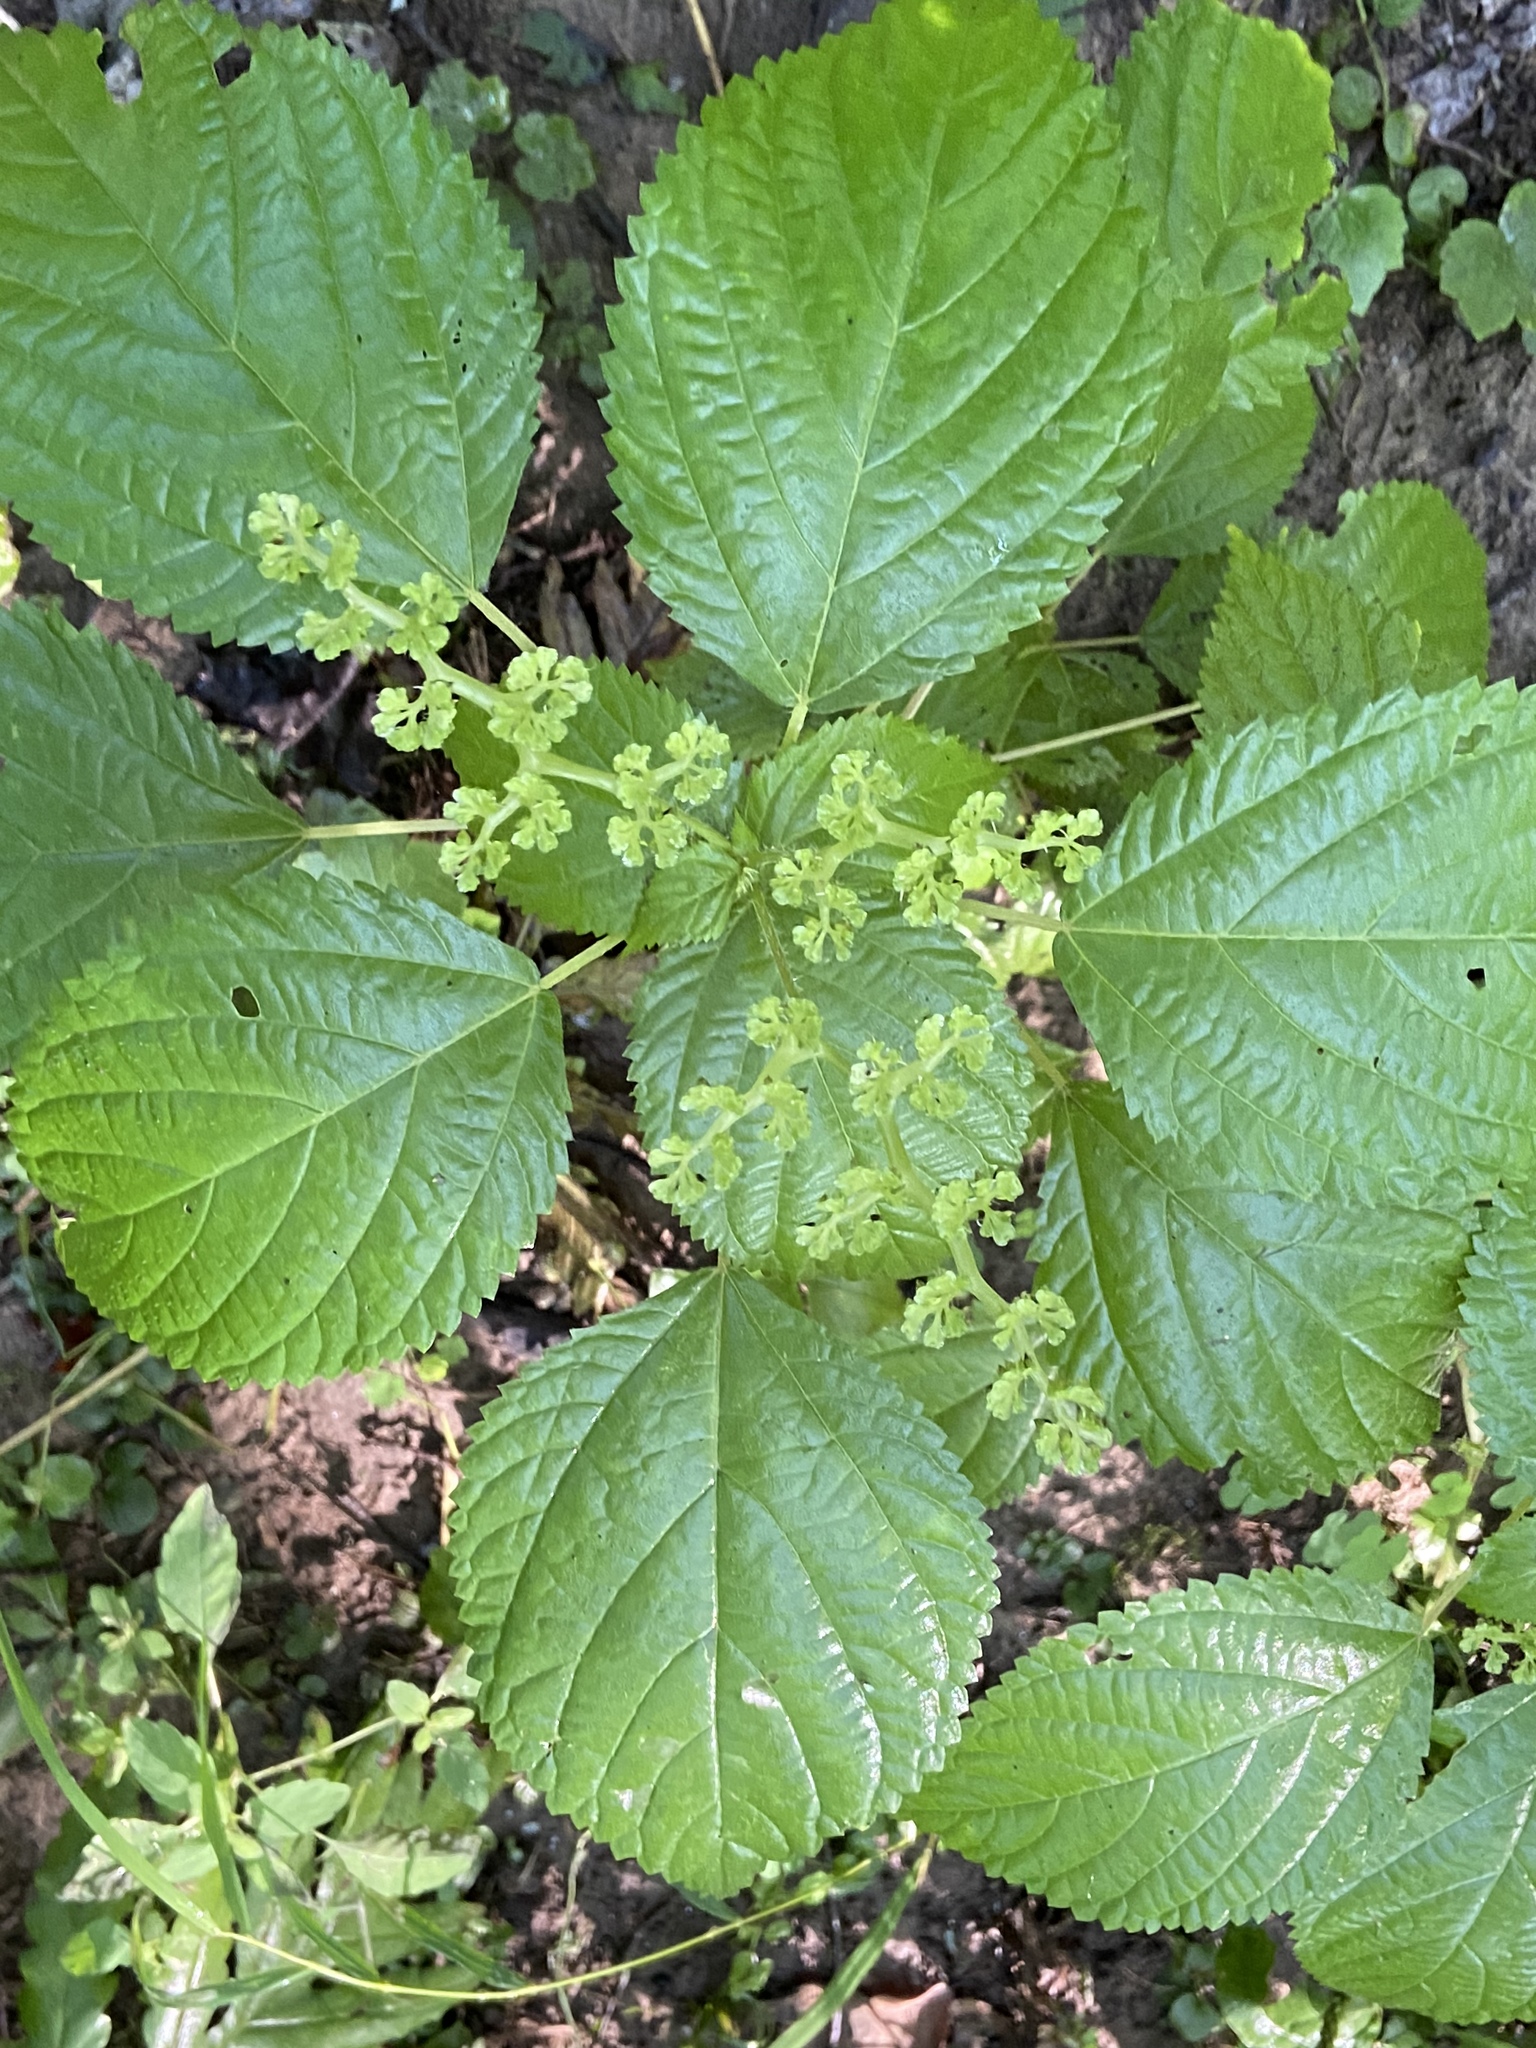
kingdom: Plantae
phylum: Tracheophyta
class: Magnoliopsida
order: Rosales
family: Urticaceae
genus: Laportea
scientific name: Laportea canadensis
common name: Canada nettle
